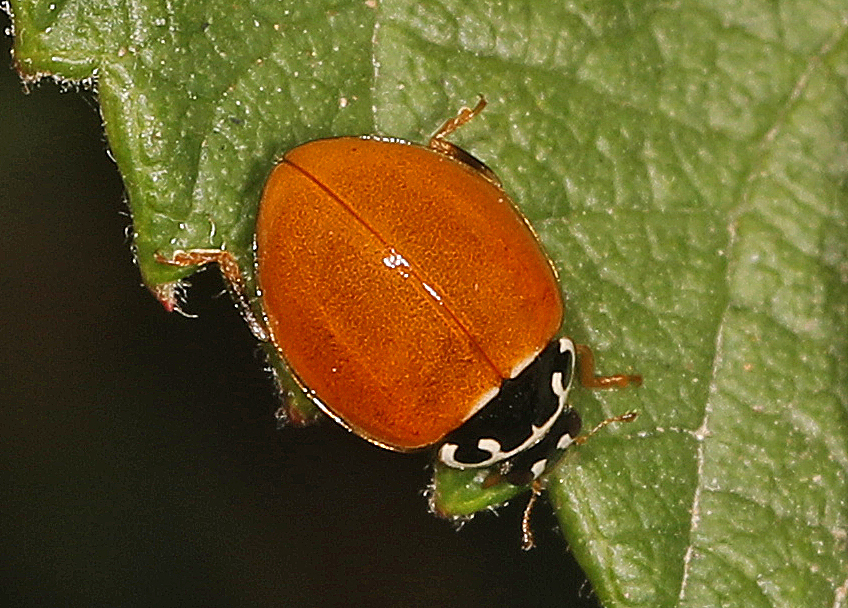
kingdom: Animalia
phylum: Arthropoda
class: Insecta
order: Coleoptera
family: Coccinellidae
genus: Cycloneda
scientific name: Cycloneda munda
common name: Polished lady beetle
